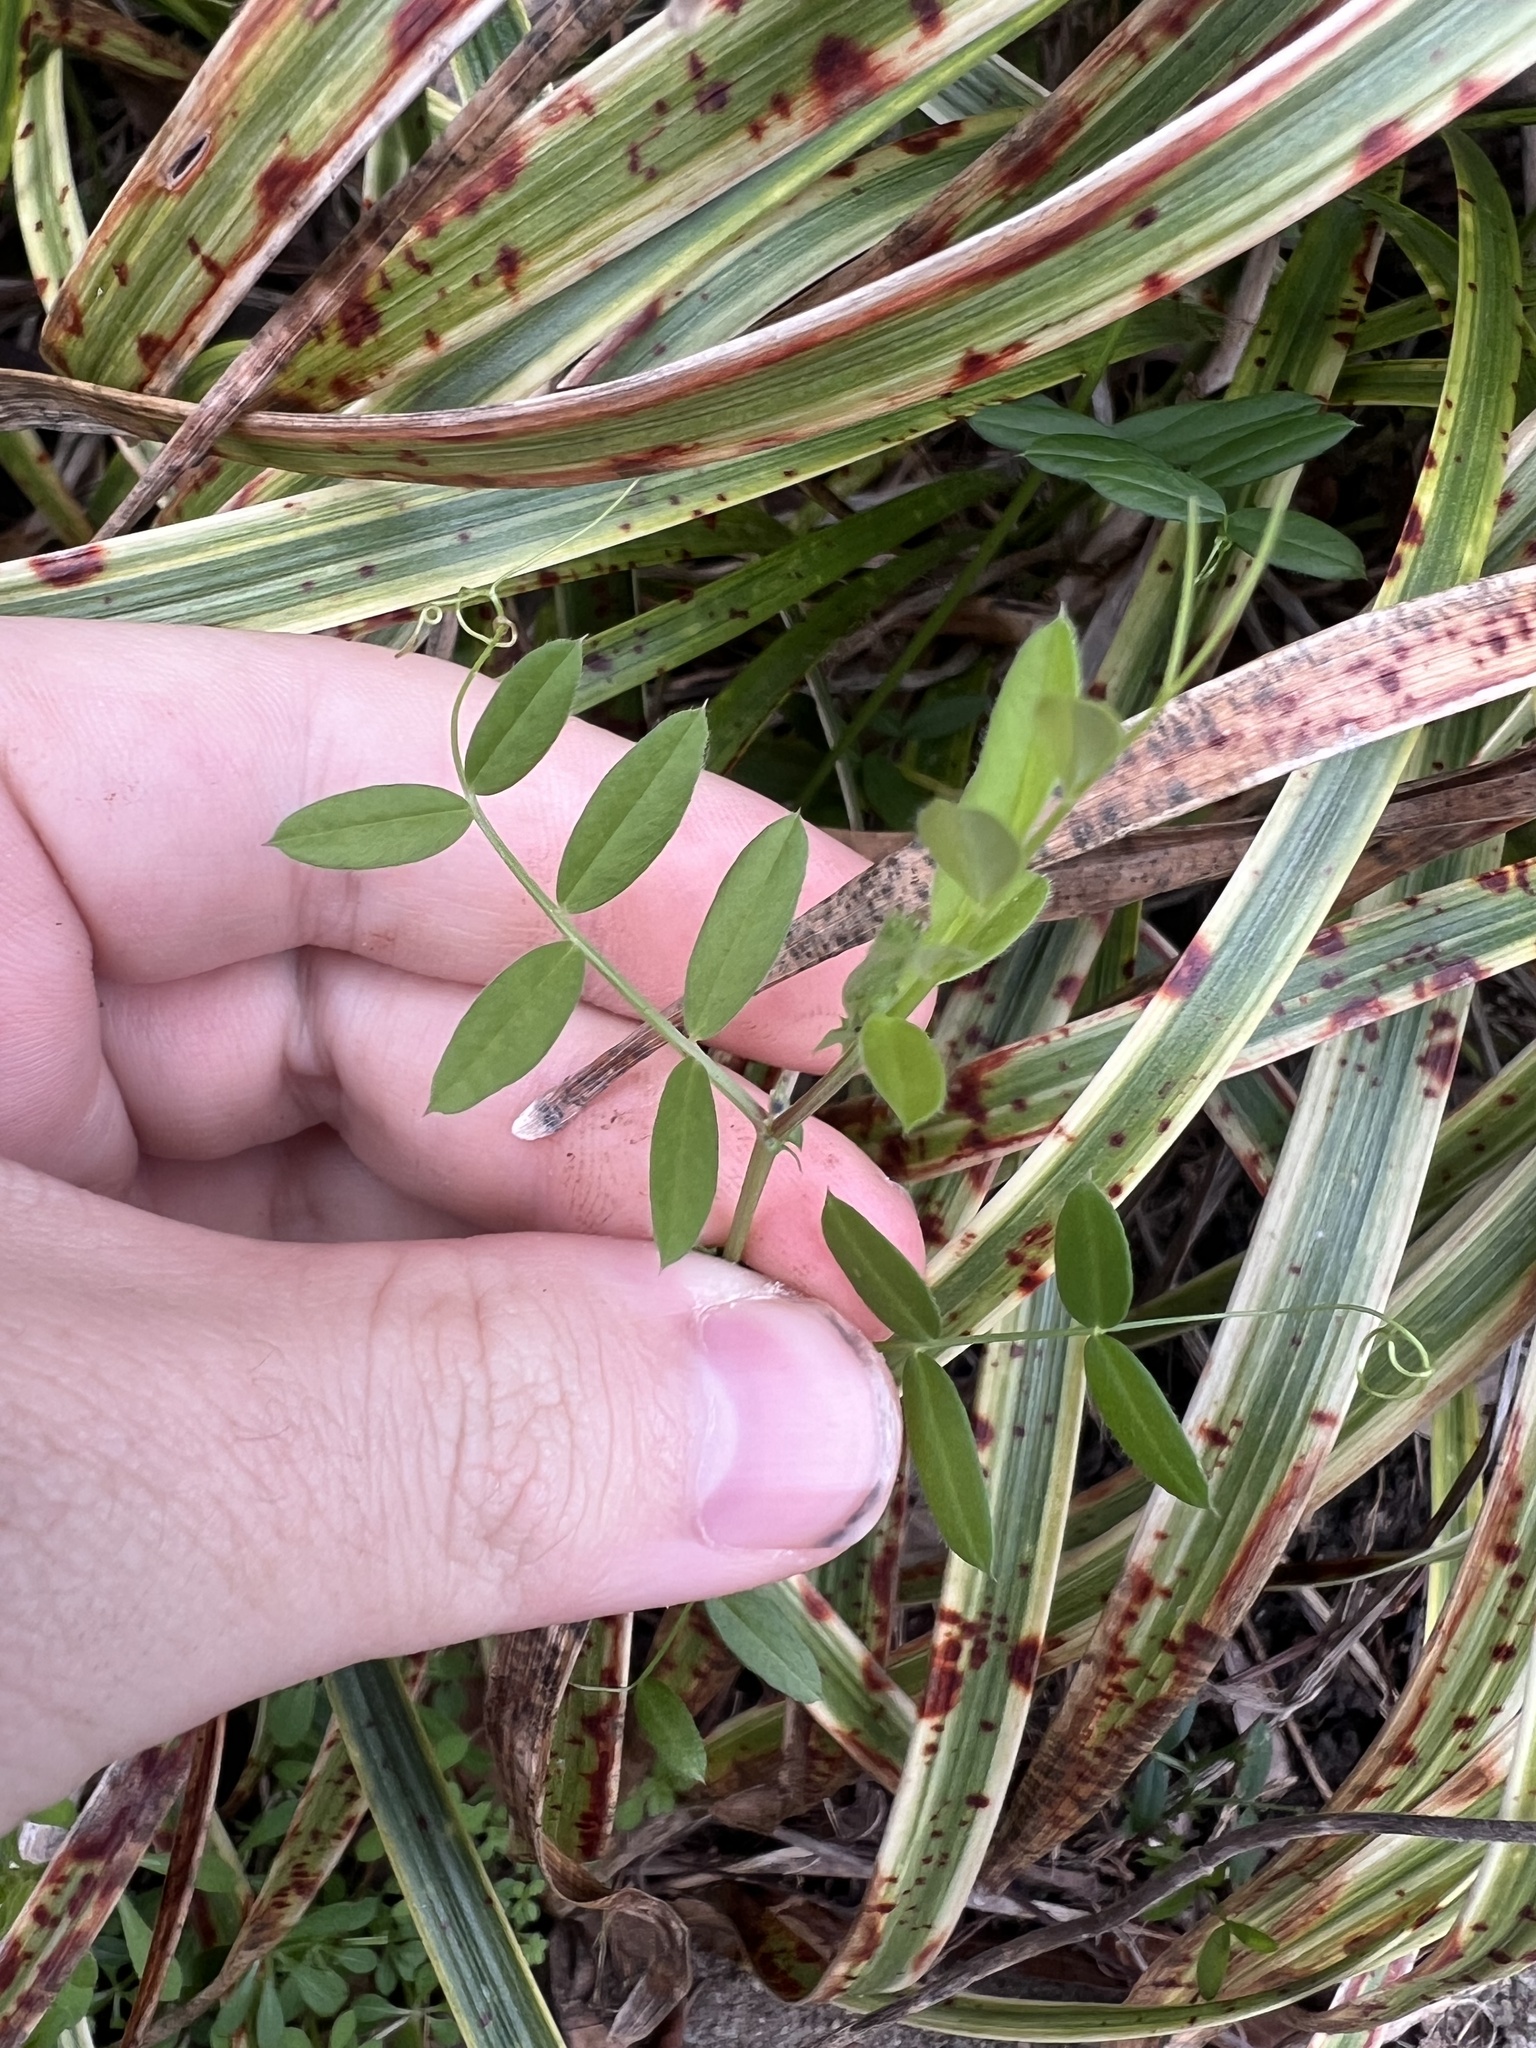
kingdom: Plantae
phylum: Tracheophyta
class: Magnoliopsida
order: Fabales
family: Fabaceae
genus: Vicia
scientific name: Vicia sativa
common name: Garden vetch
